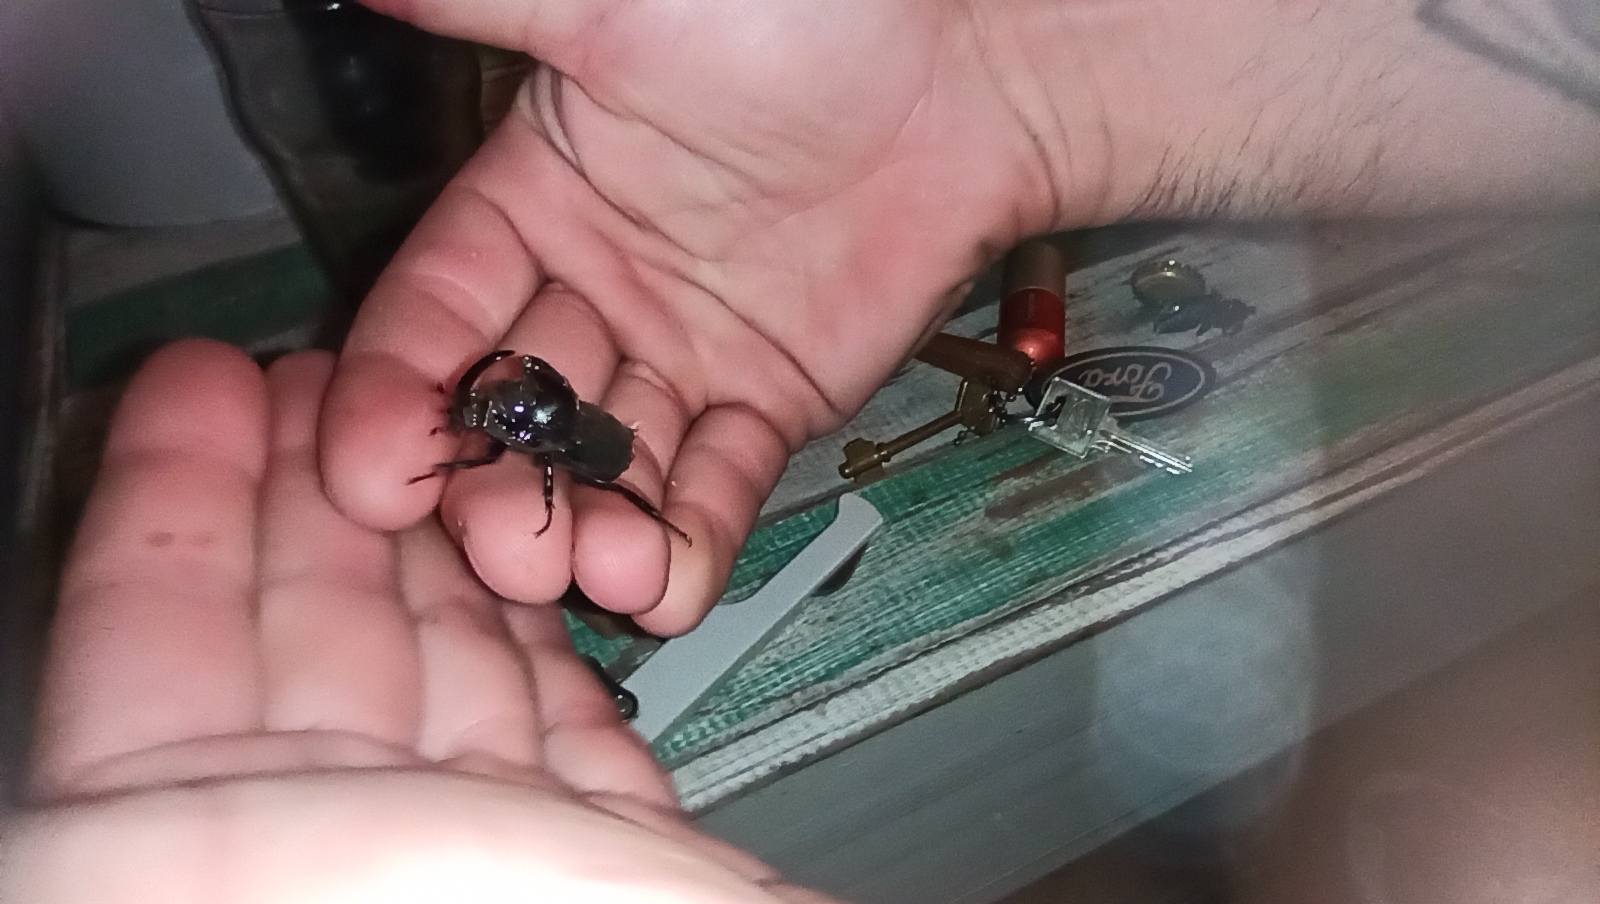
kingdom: Animalia
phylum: Arthropoda
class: Insecta
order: Coleoptera
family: Scarabaeidae
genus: Diloboderus
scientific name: Diloboderus abderus
